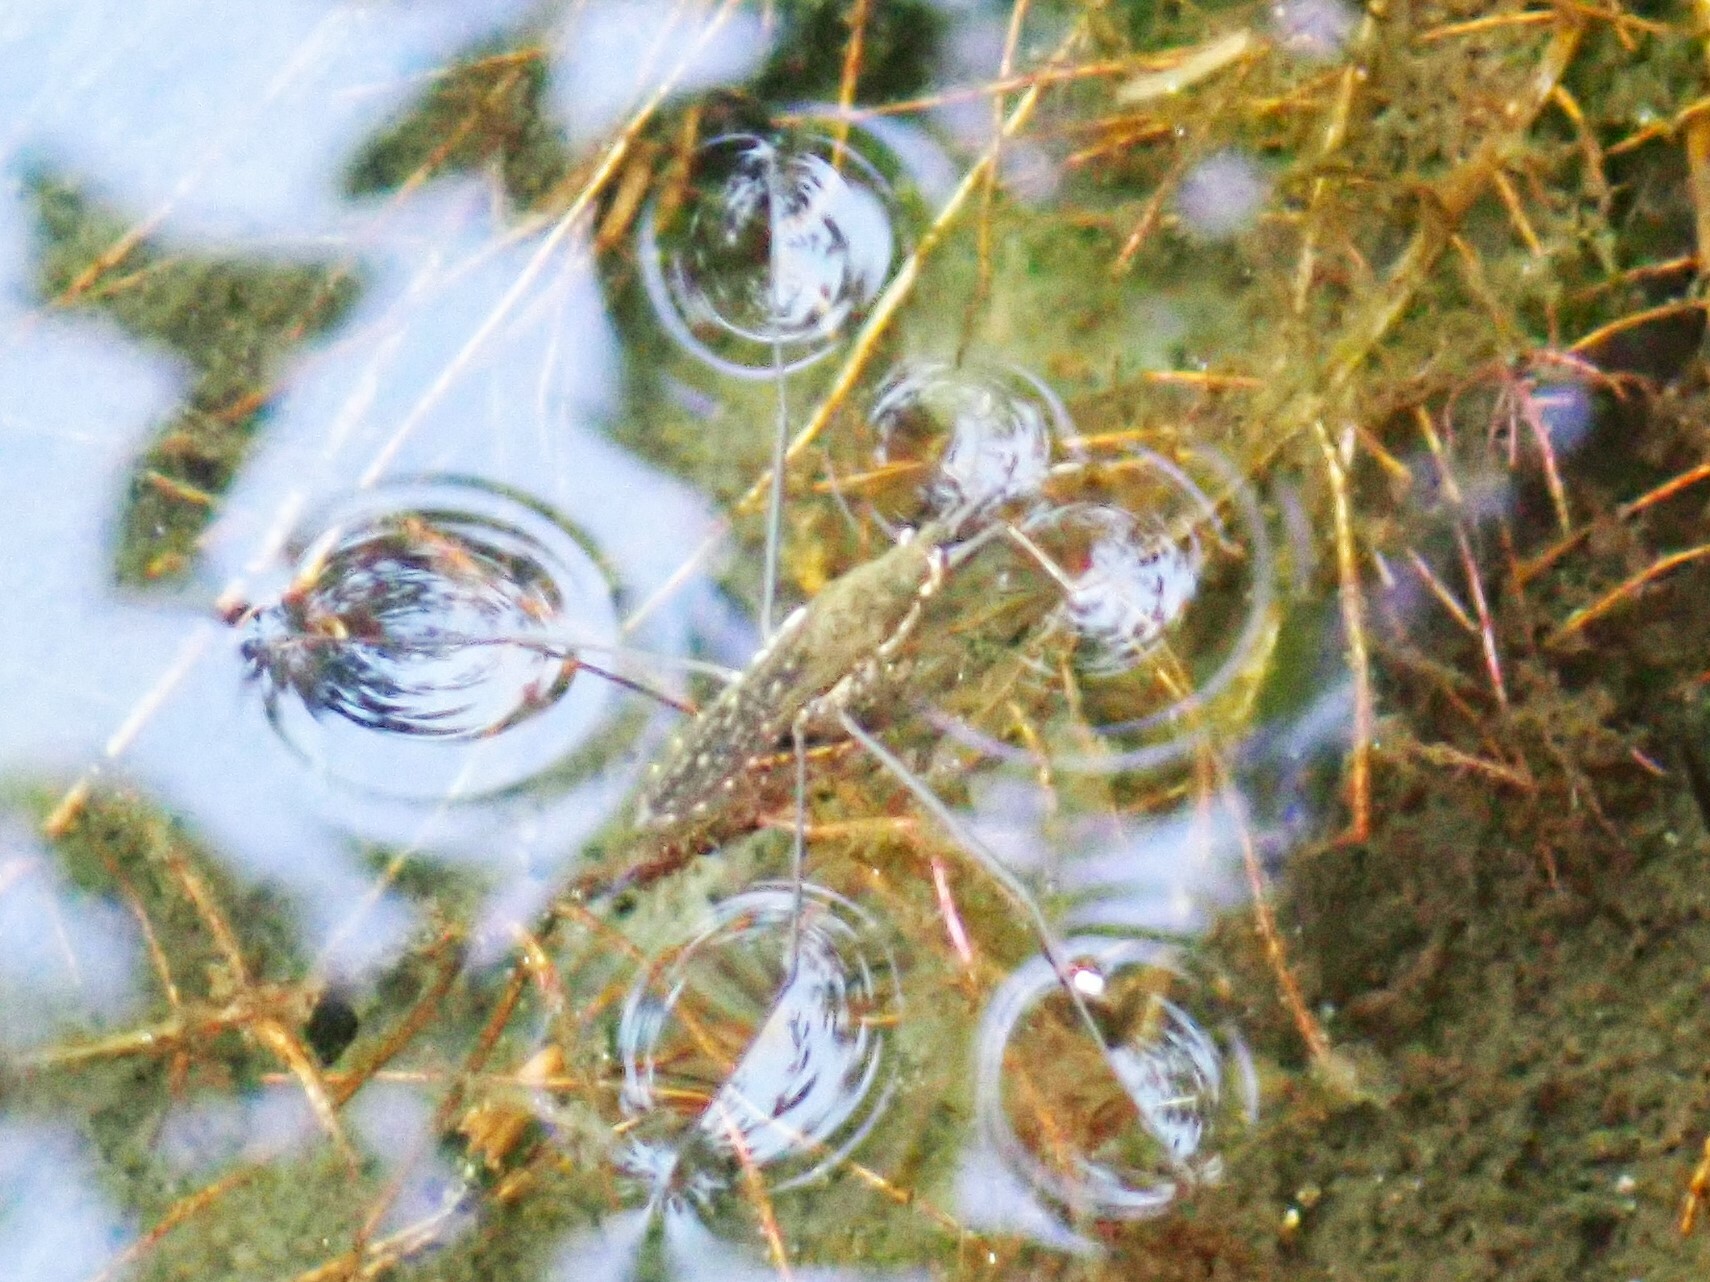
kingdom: Animalia
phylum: Arthropoda
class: Insecta
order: Hemiptera
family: Gerridae
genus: Aquarius
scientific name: Aquarius remigis
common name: Common water strider
